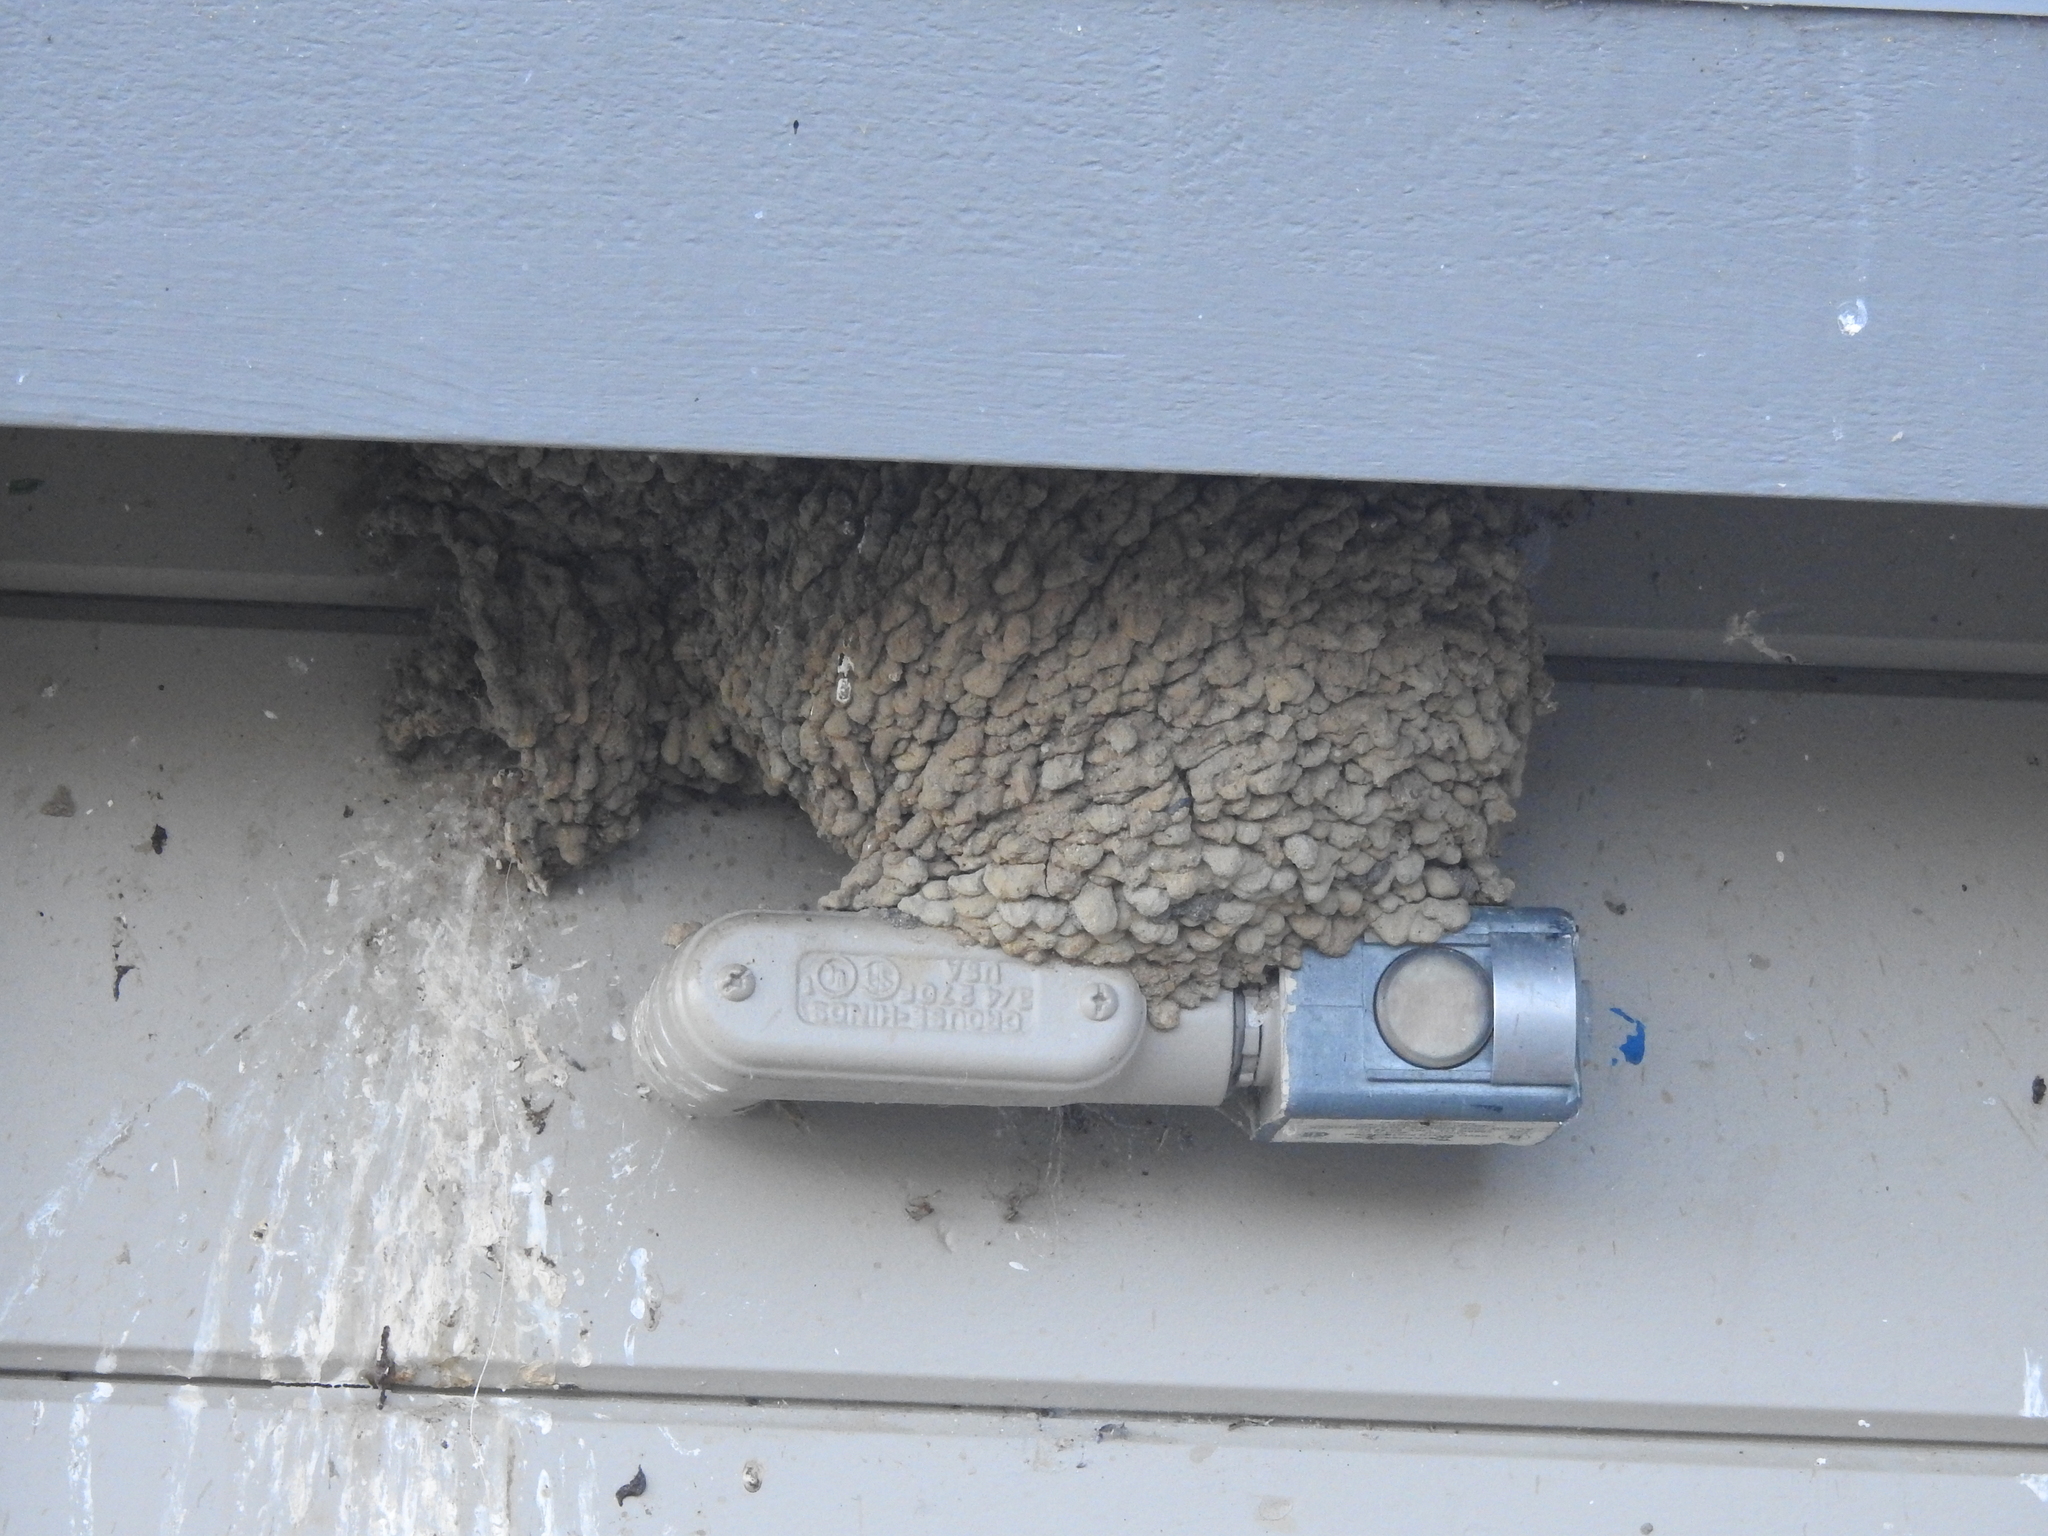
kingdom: Animalia
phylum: Chordata
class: Aves
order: Passeriformes
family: Hirundinidae
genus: Petrochelidon
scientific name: Petrochelidon pyrrhonota
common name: American cliff swallow
